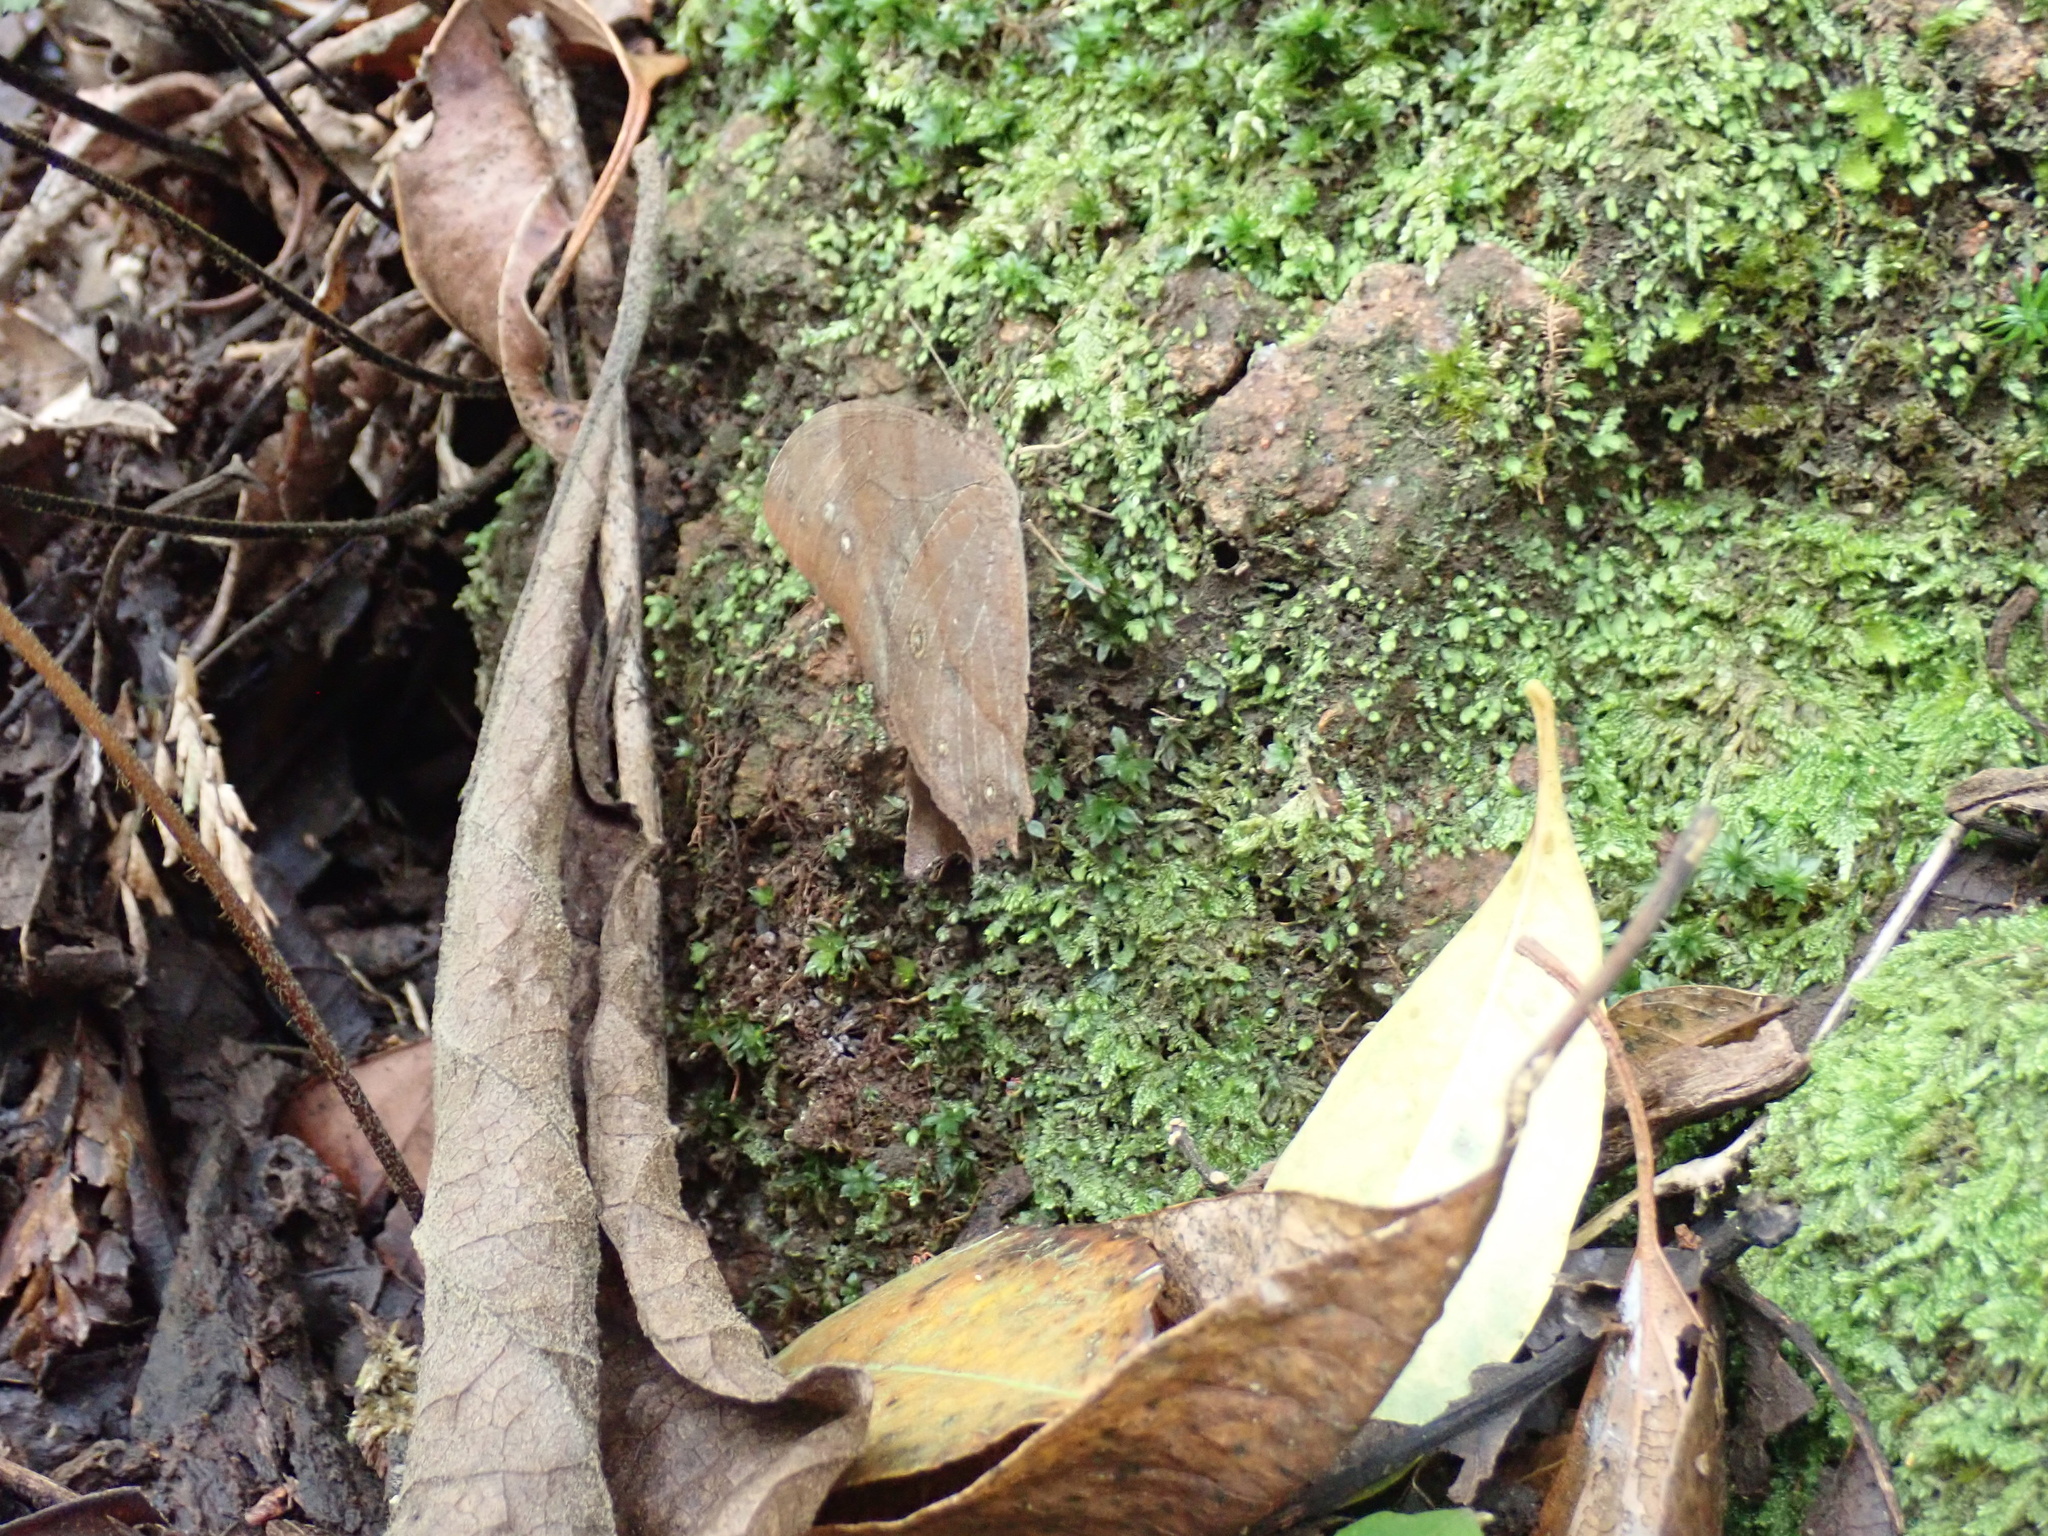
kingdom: Animalia
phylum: Arthropoda
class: Insecta
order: Lepidoptera
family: Nymphalidae
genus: Melanitis
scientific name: Melanitis leda
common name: Twilight brown
